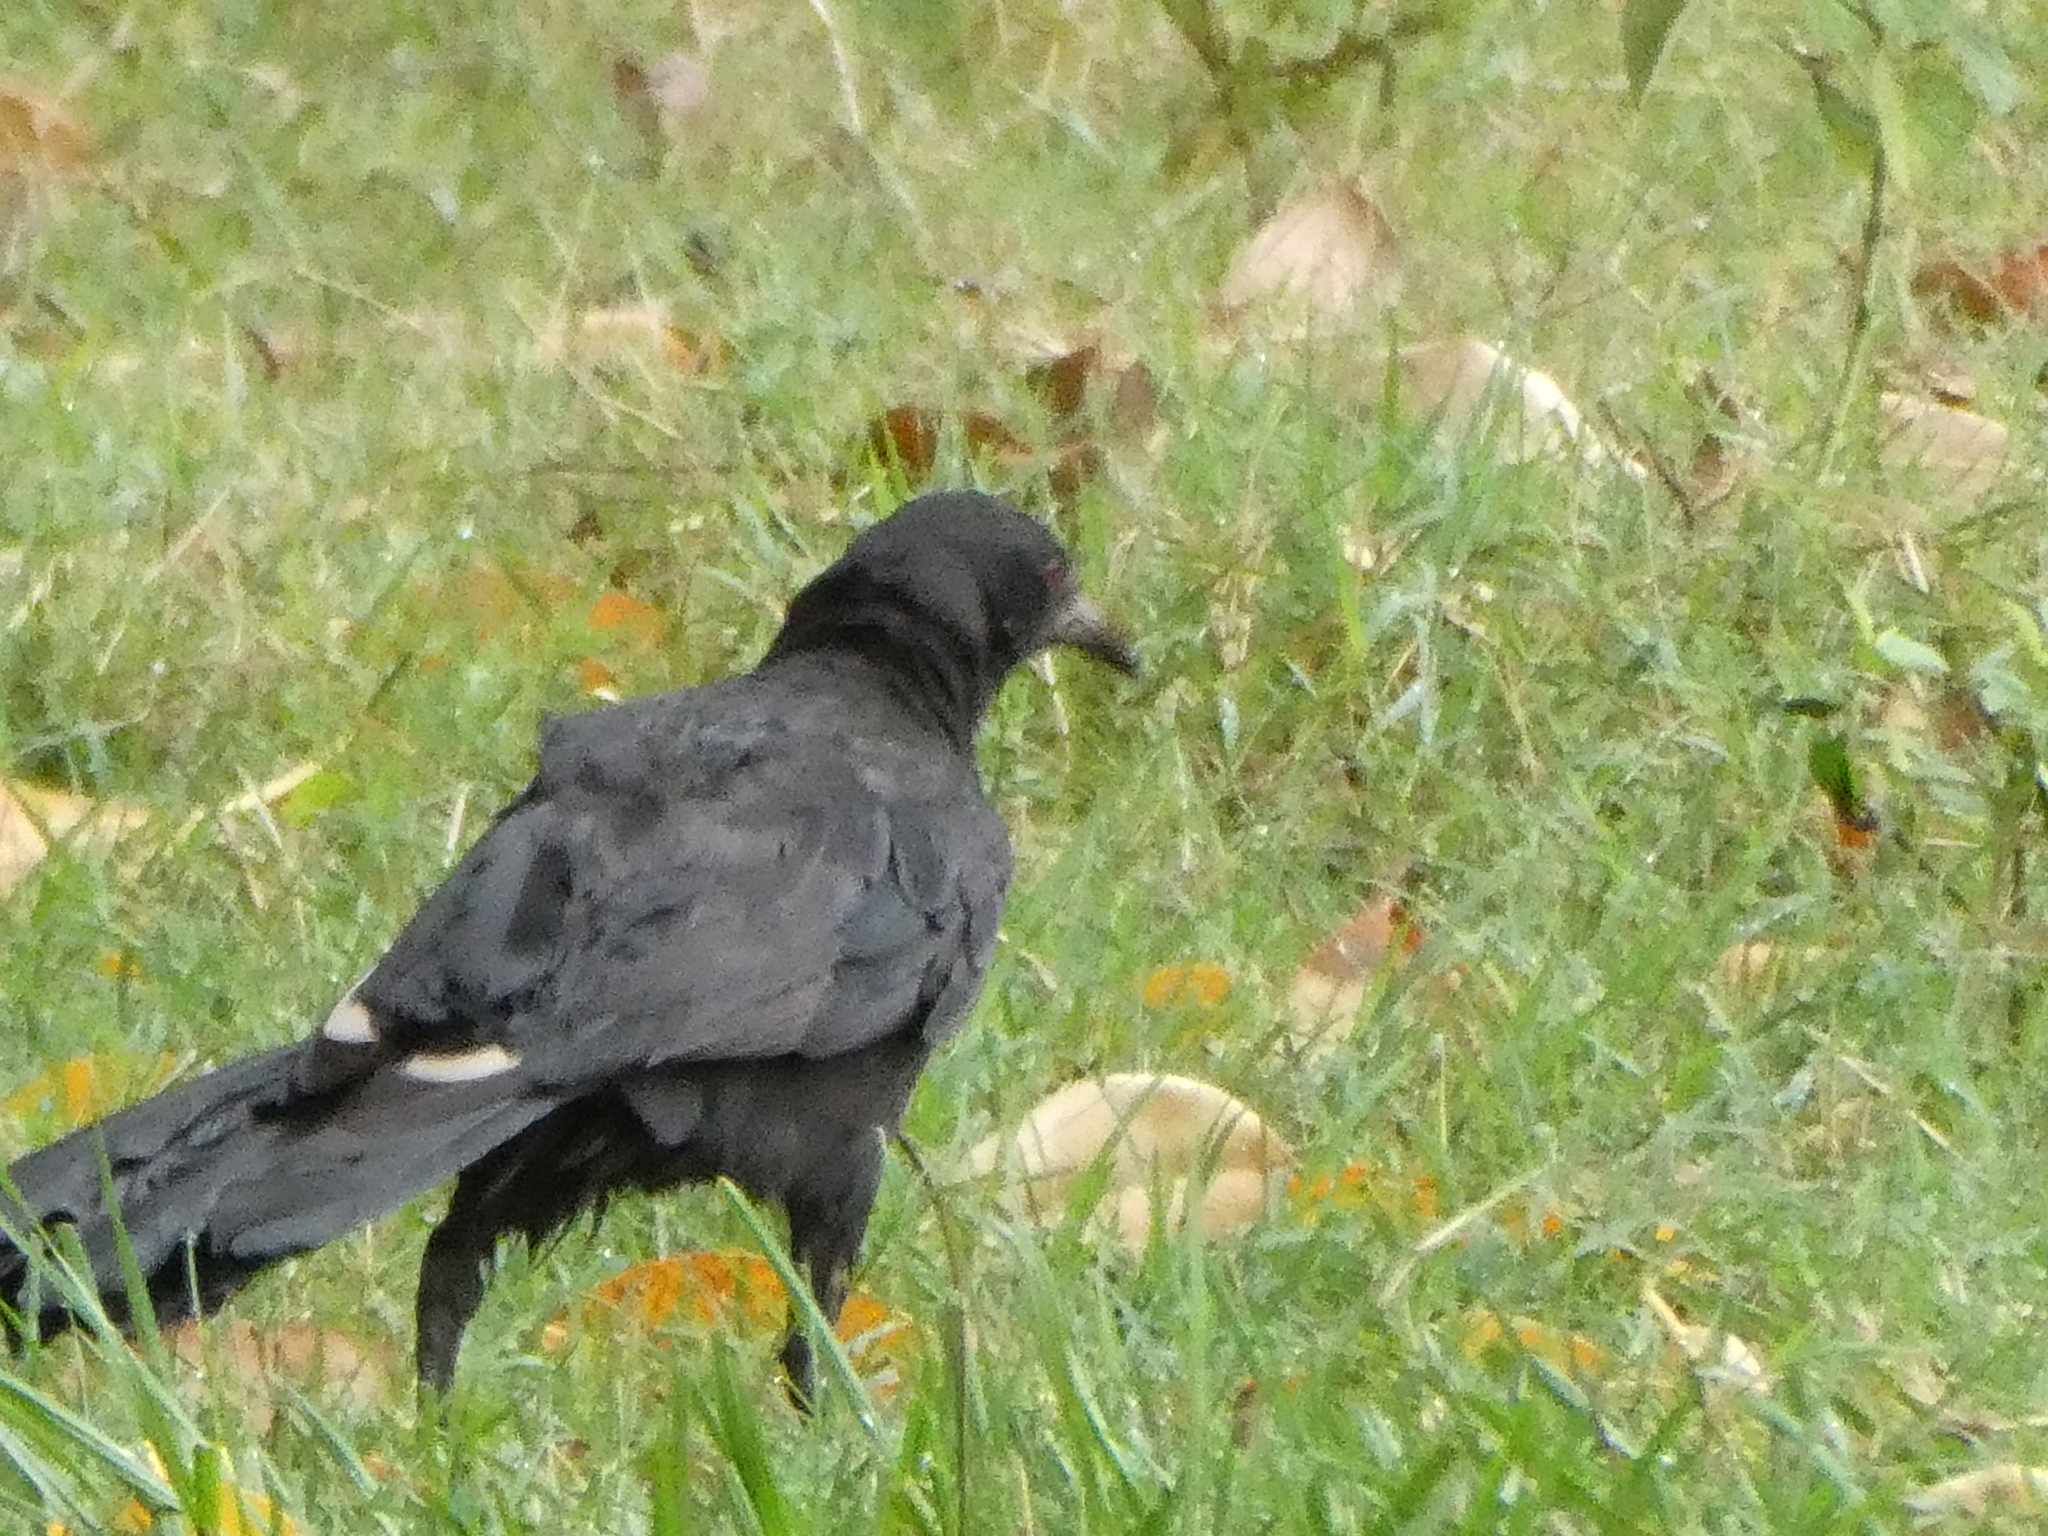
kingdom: Animalia
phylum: Chordata
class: Aves
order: Passeriformes
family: Corcoracidae
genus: Corcorax
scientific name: Corcorax melanoramphos
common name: White-winged chough
